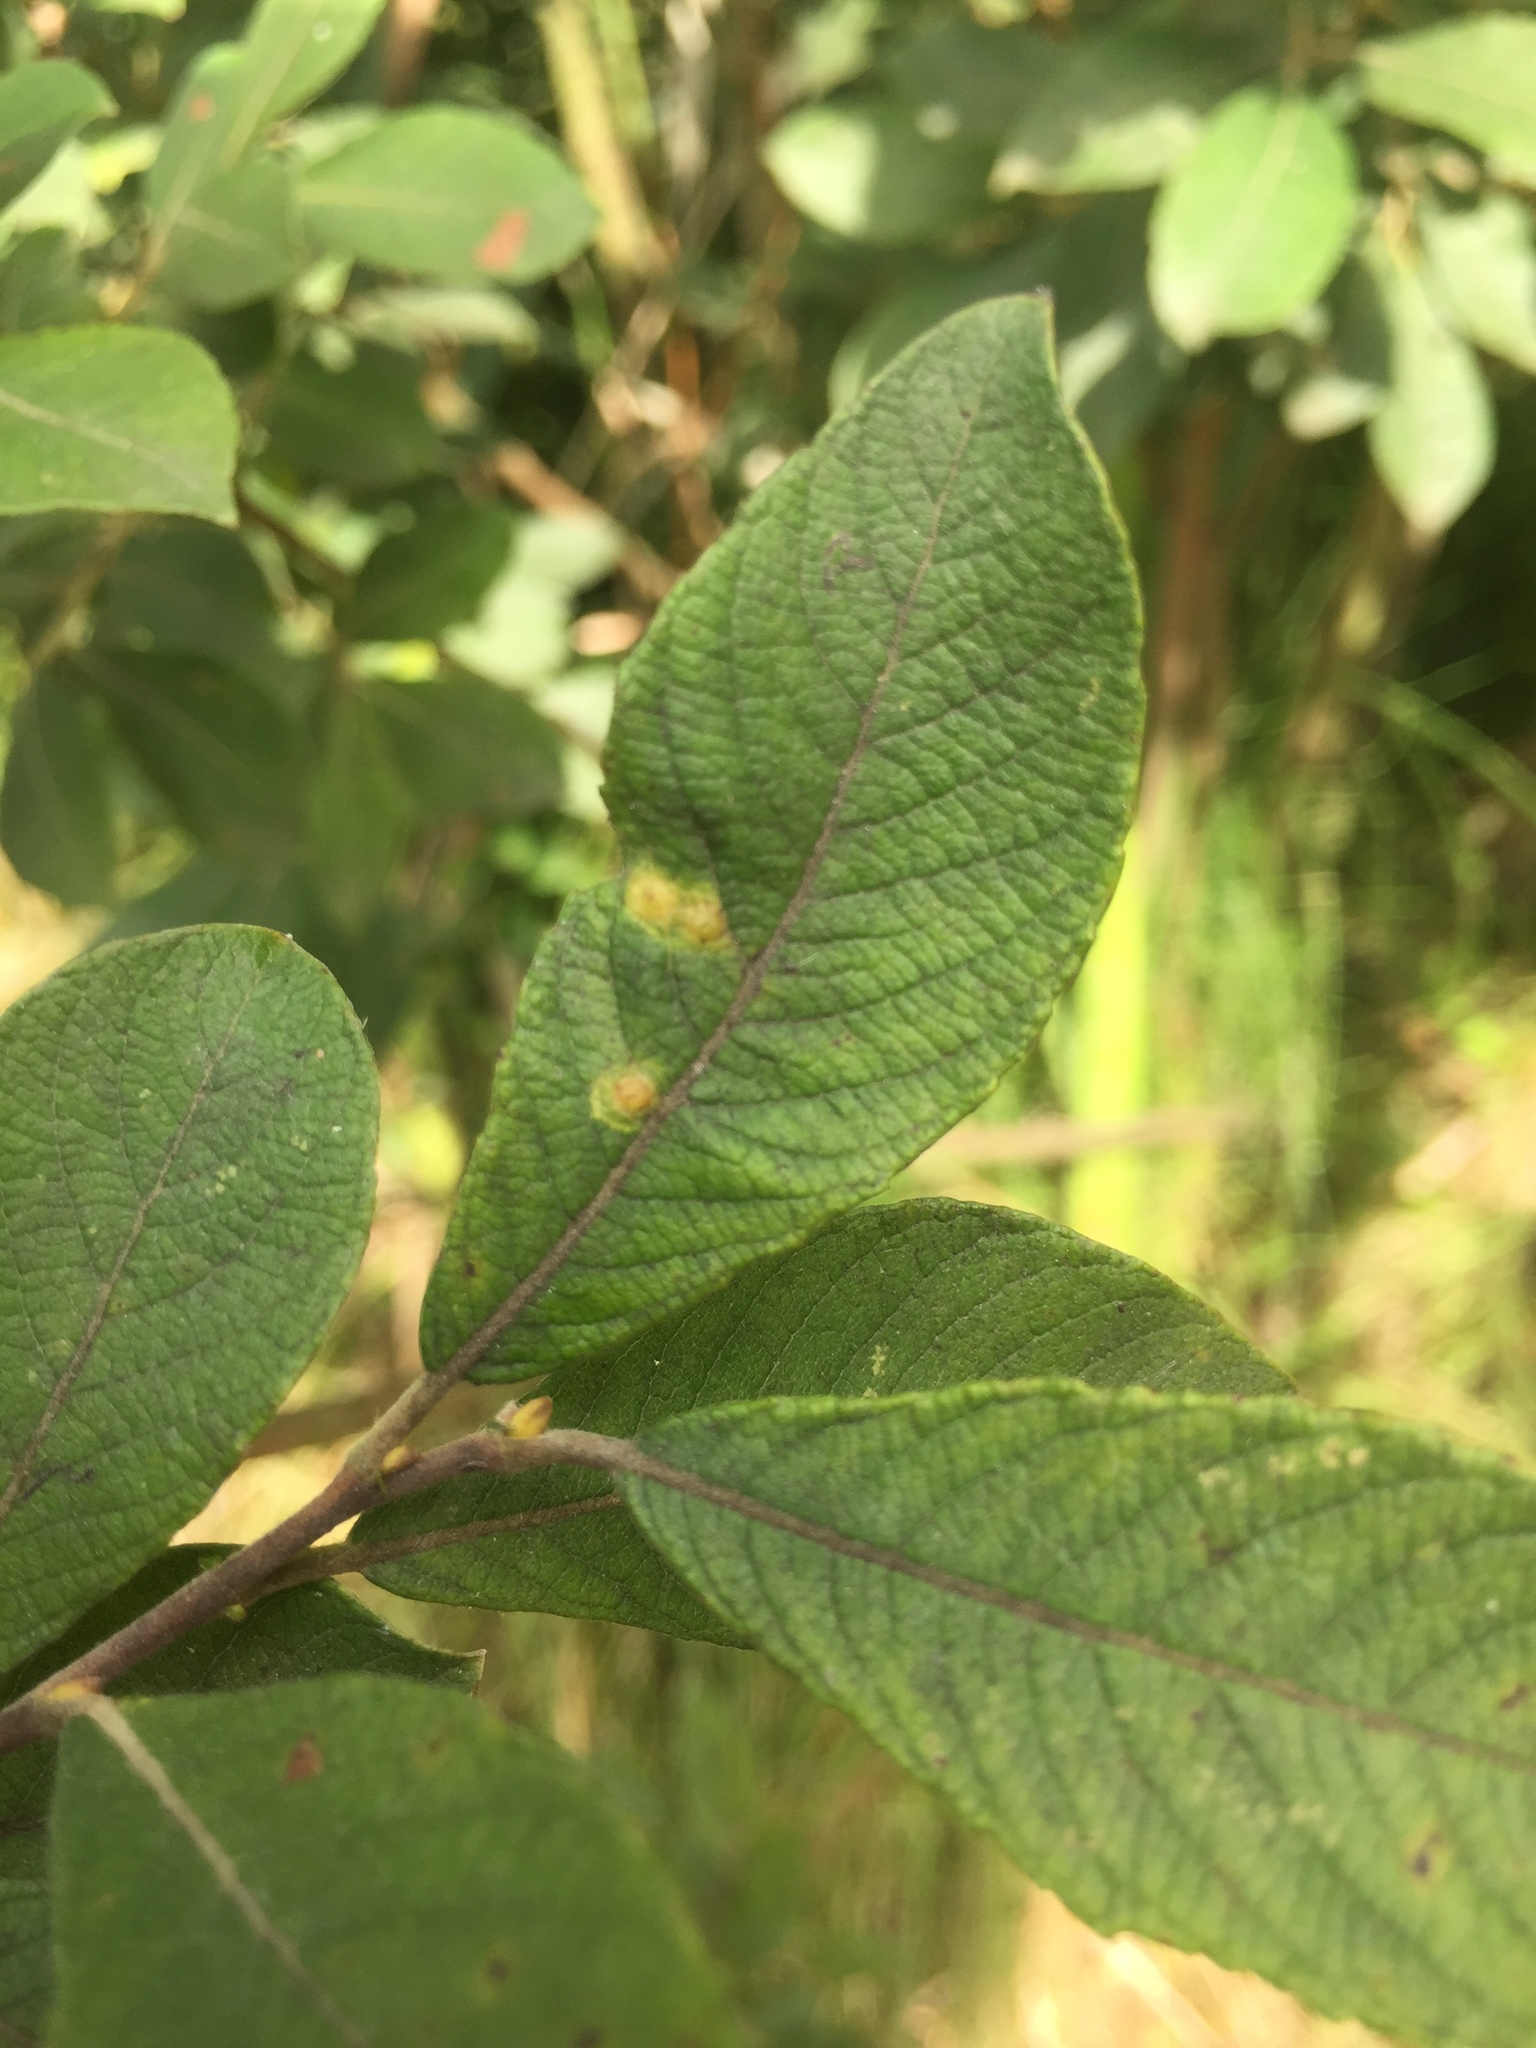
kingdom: Animalia
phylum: Arthropoda
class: Insecta
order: Diptera
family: Cecidomyiidae
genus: Iteomyia
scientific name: Iteomyia capreae
